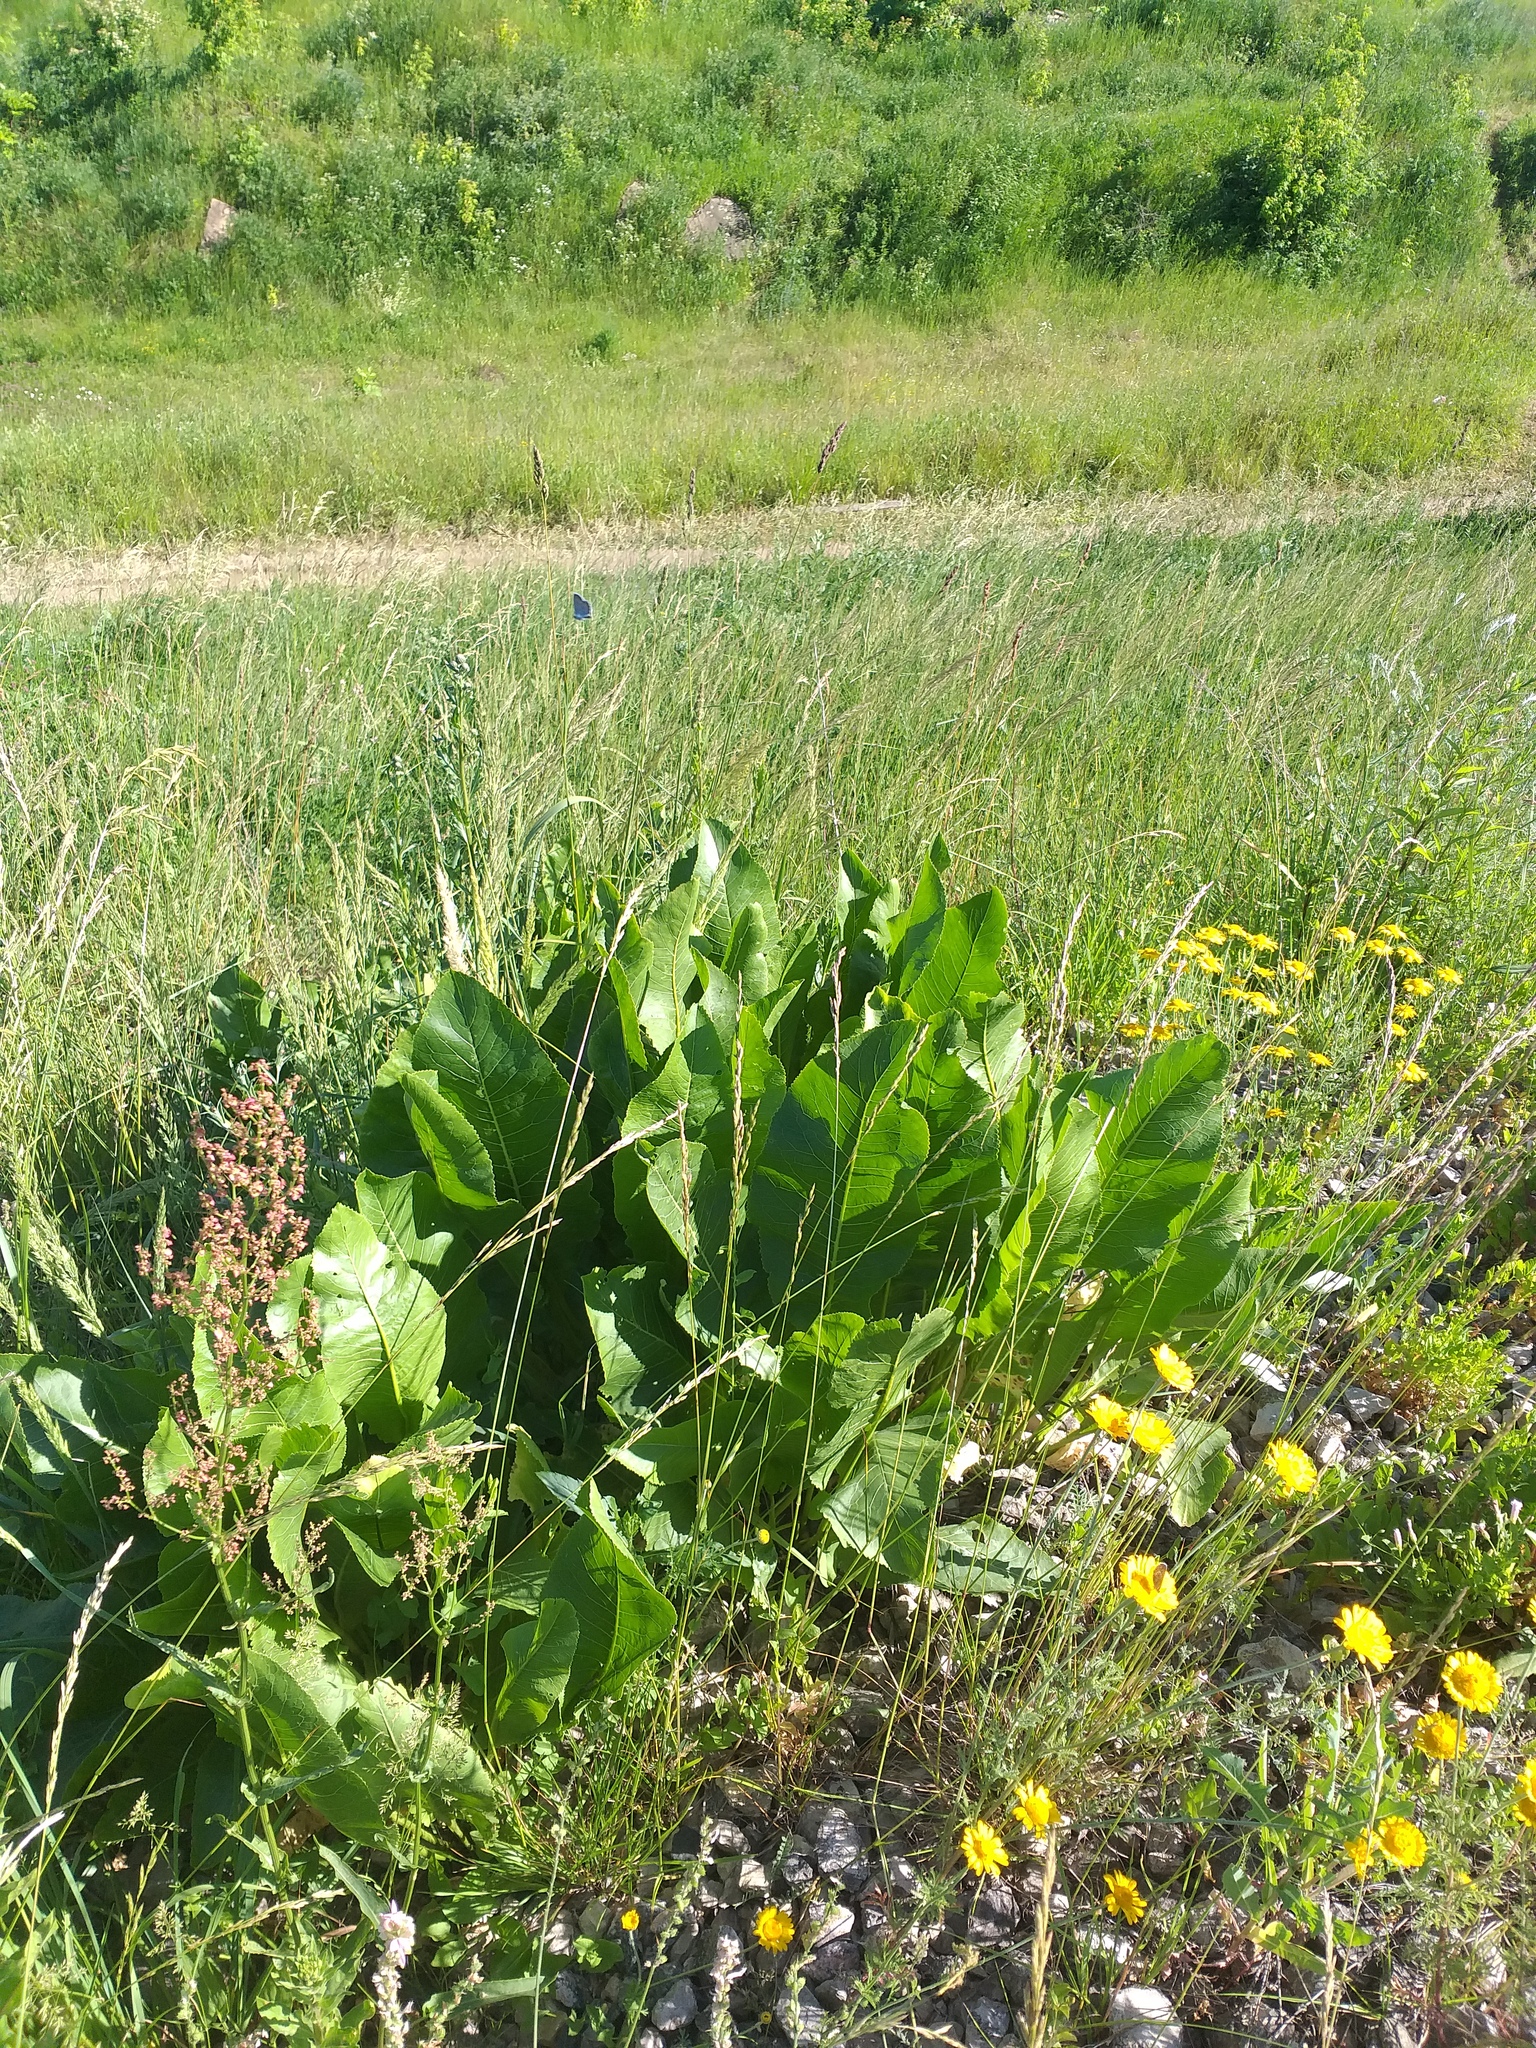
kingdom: Plantae
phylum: Tracheophyta
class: Magnoliopsida
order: Brassicales
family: Brassicaceae
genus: Armoracia
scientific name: Armoracia rusticana
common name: Horseradish
